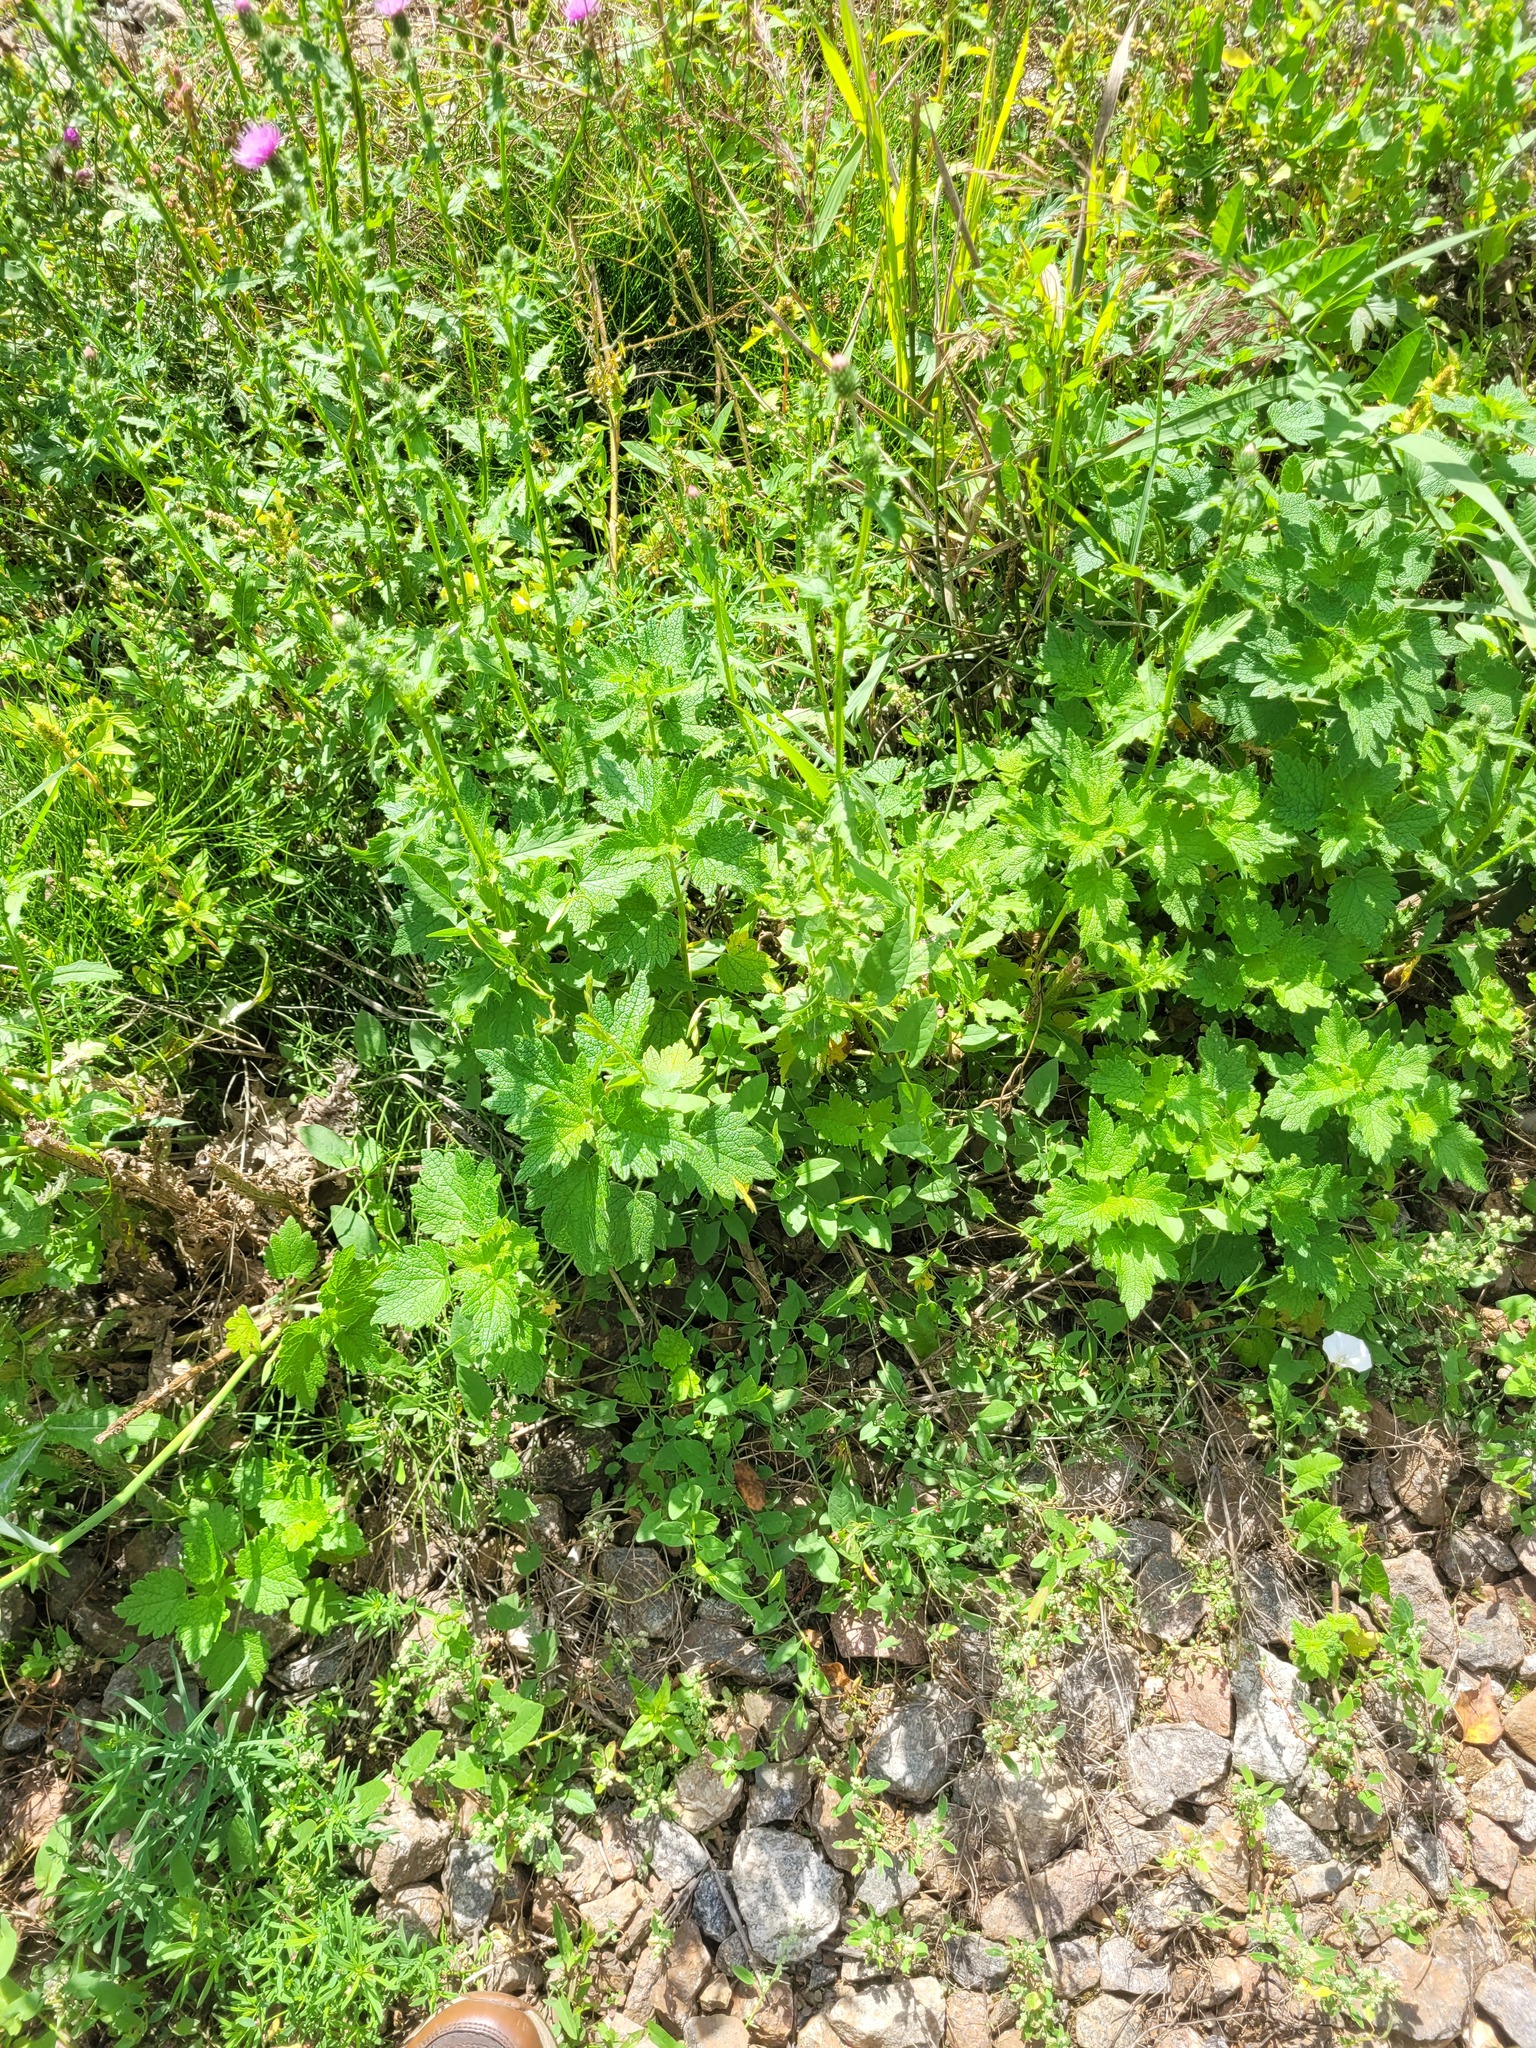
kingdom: Plantae
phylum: Tracheophyta
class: Magnoliopsida
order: Lamiales
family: Lamiaceae
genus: Leonurus
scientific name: Leonurus quinquelobatus
